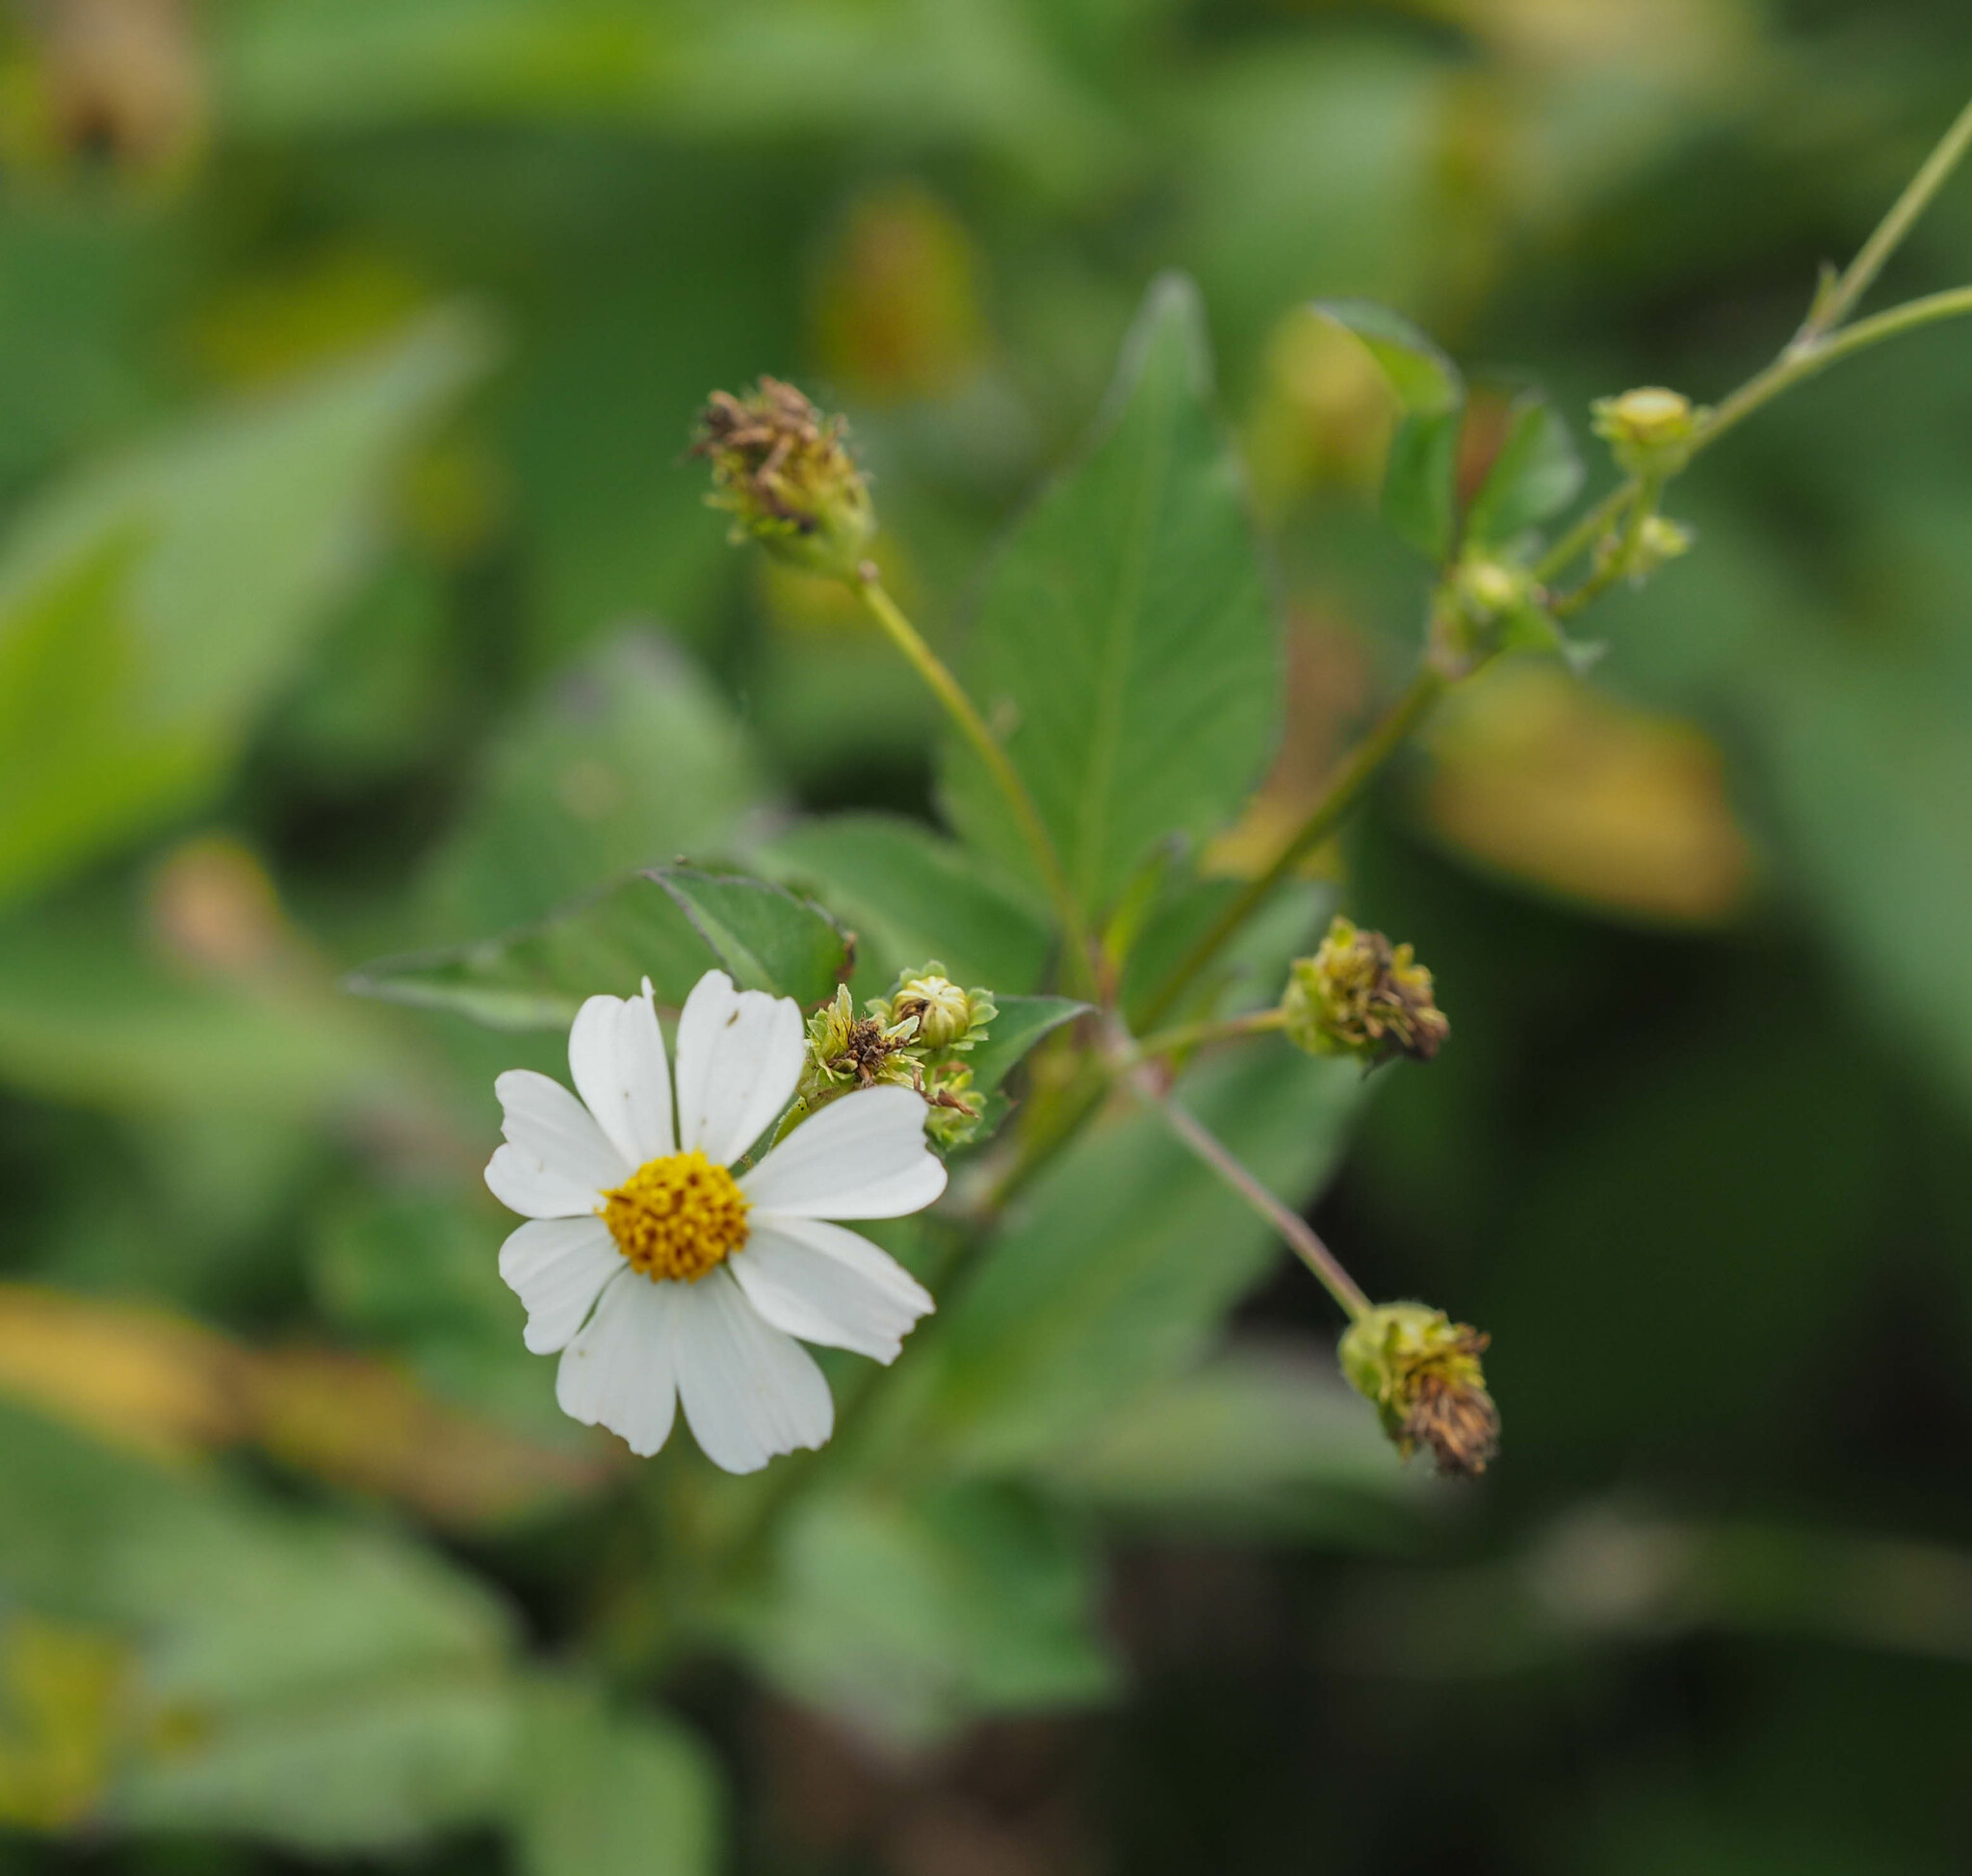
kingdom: Plantae
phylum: Tracheophyta
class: Magnoliopsida
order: Asterales
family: Asteraceae
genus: Bidens
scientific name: Bidens alba
